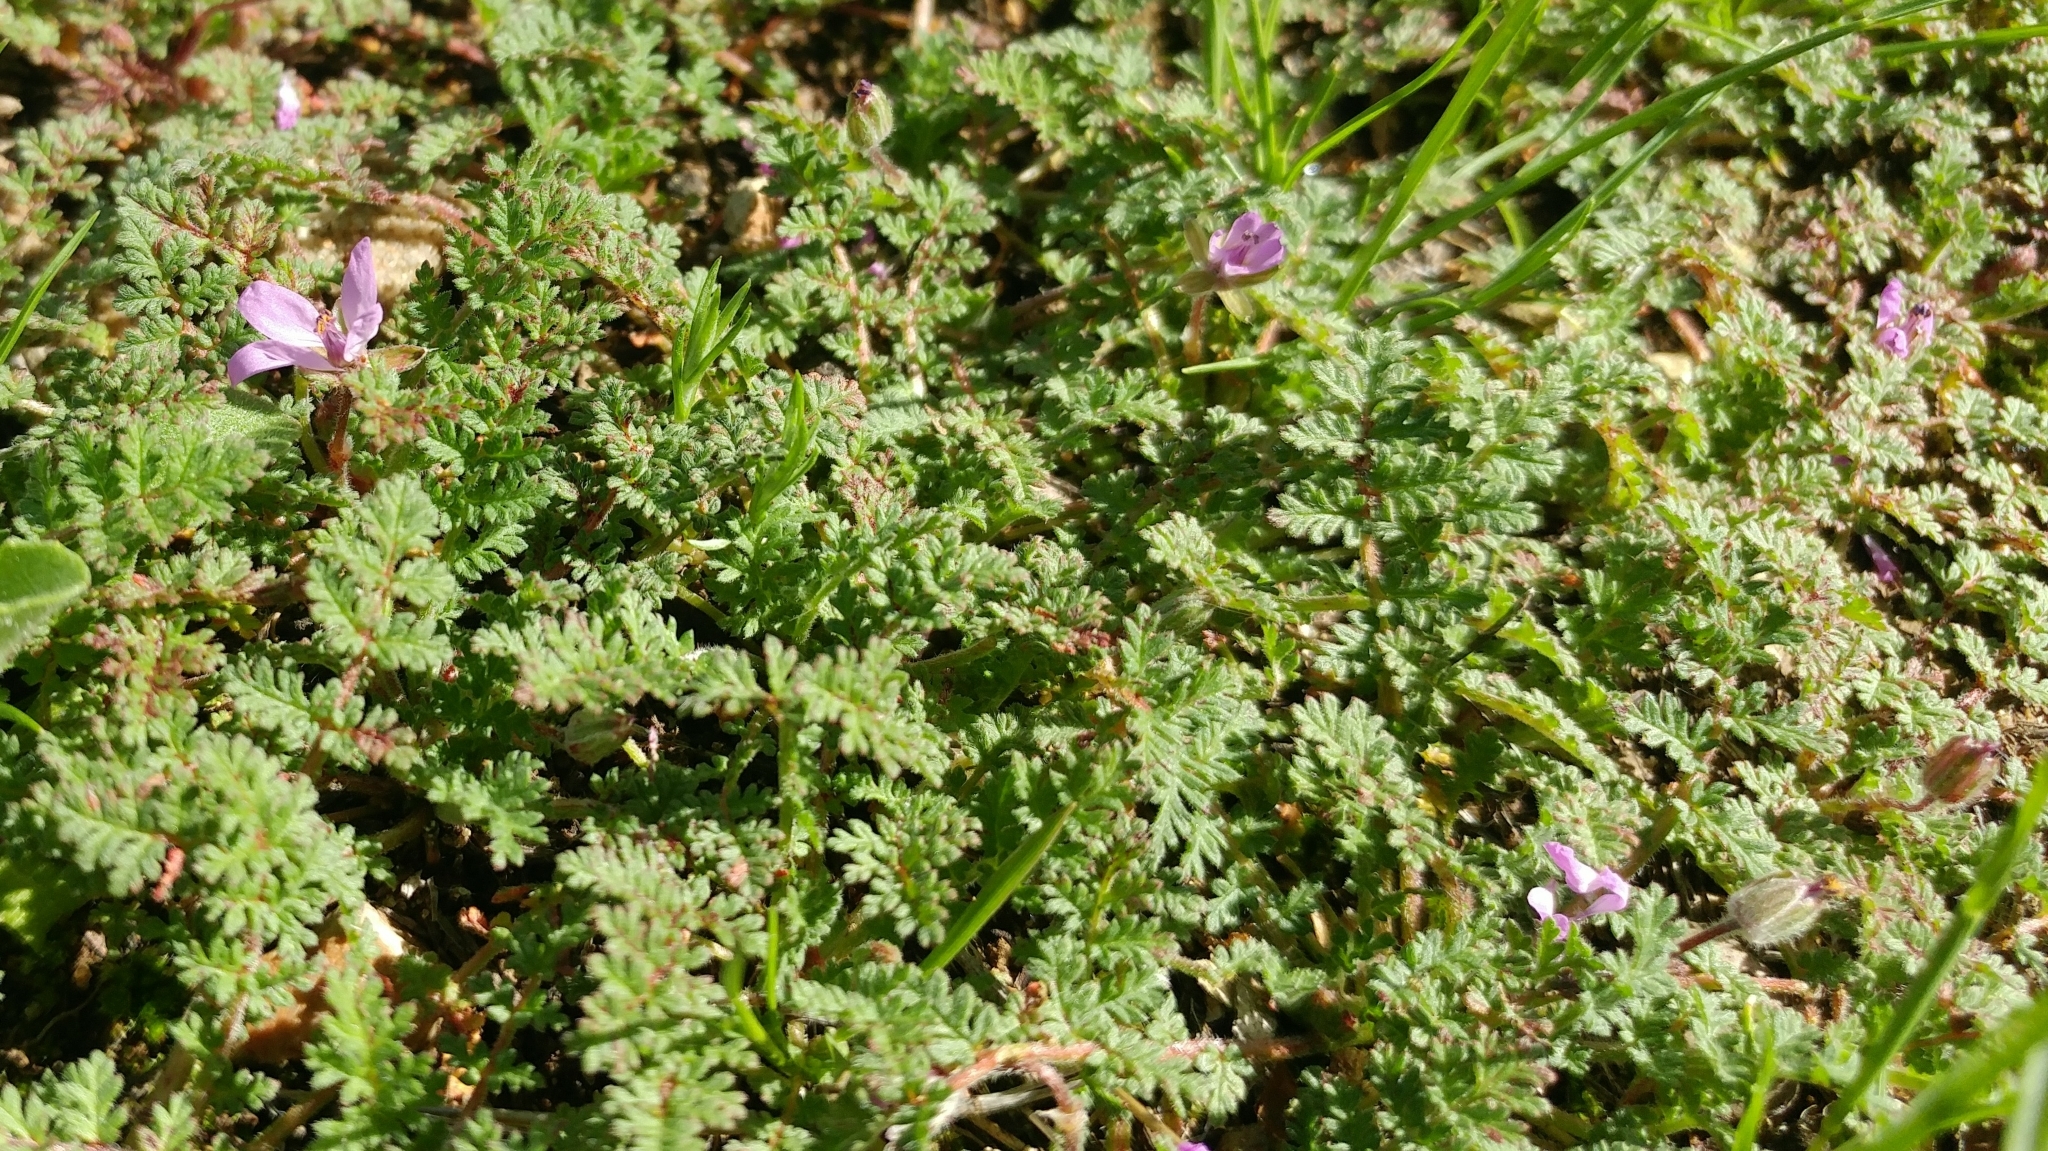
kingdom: Plantae
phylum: Tracheophyta
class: Magnoliopsida
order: Geraniales
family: Geraniaceae
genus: Erodium
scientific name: Erodium cicutarium
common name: Common stork's-bill
